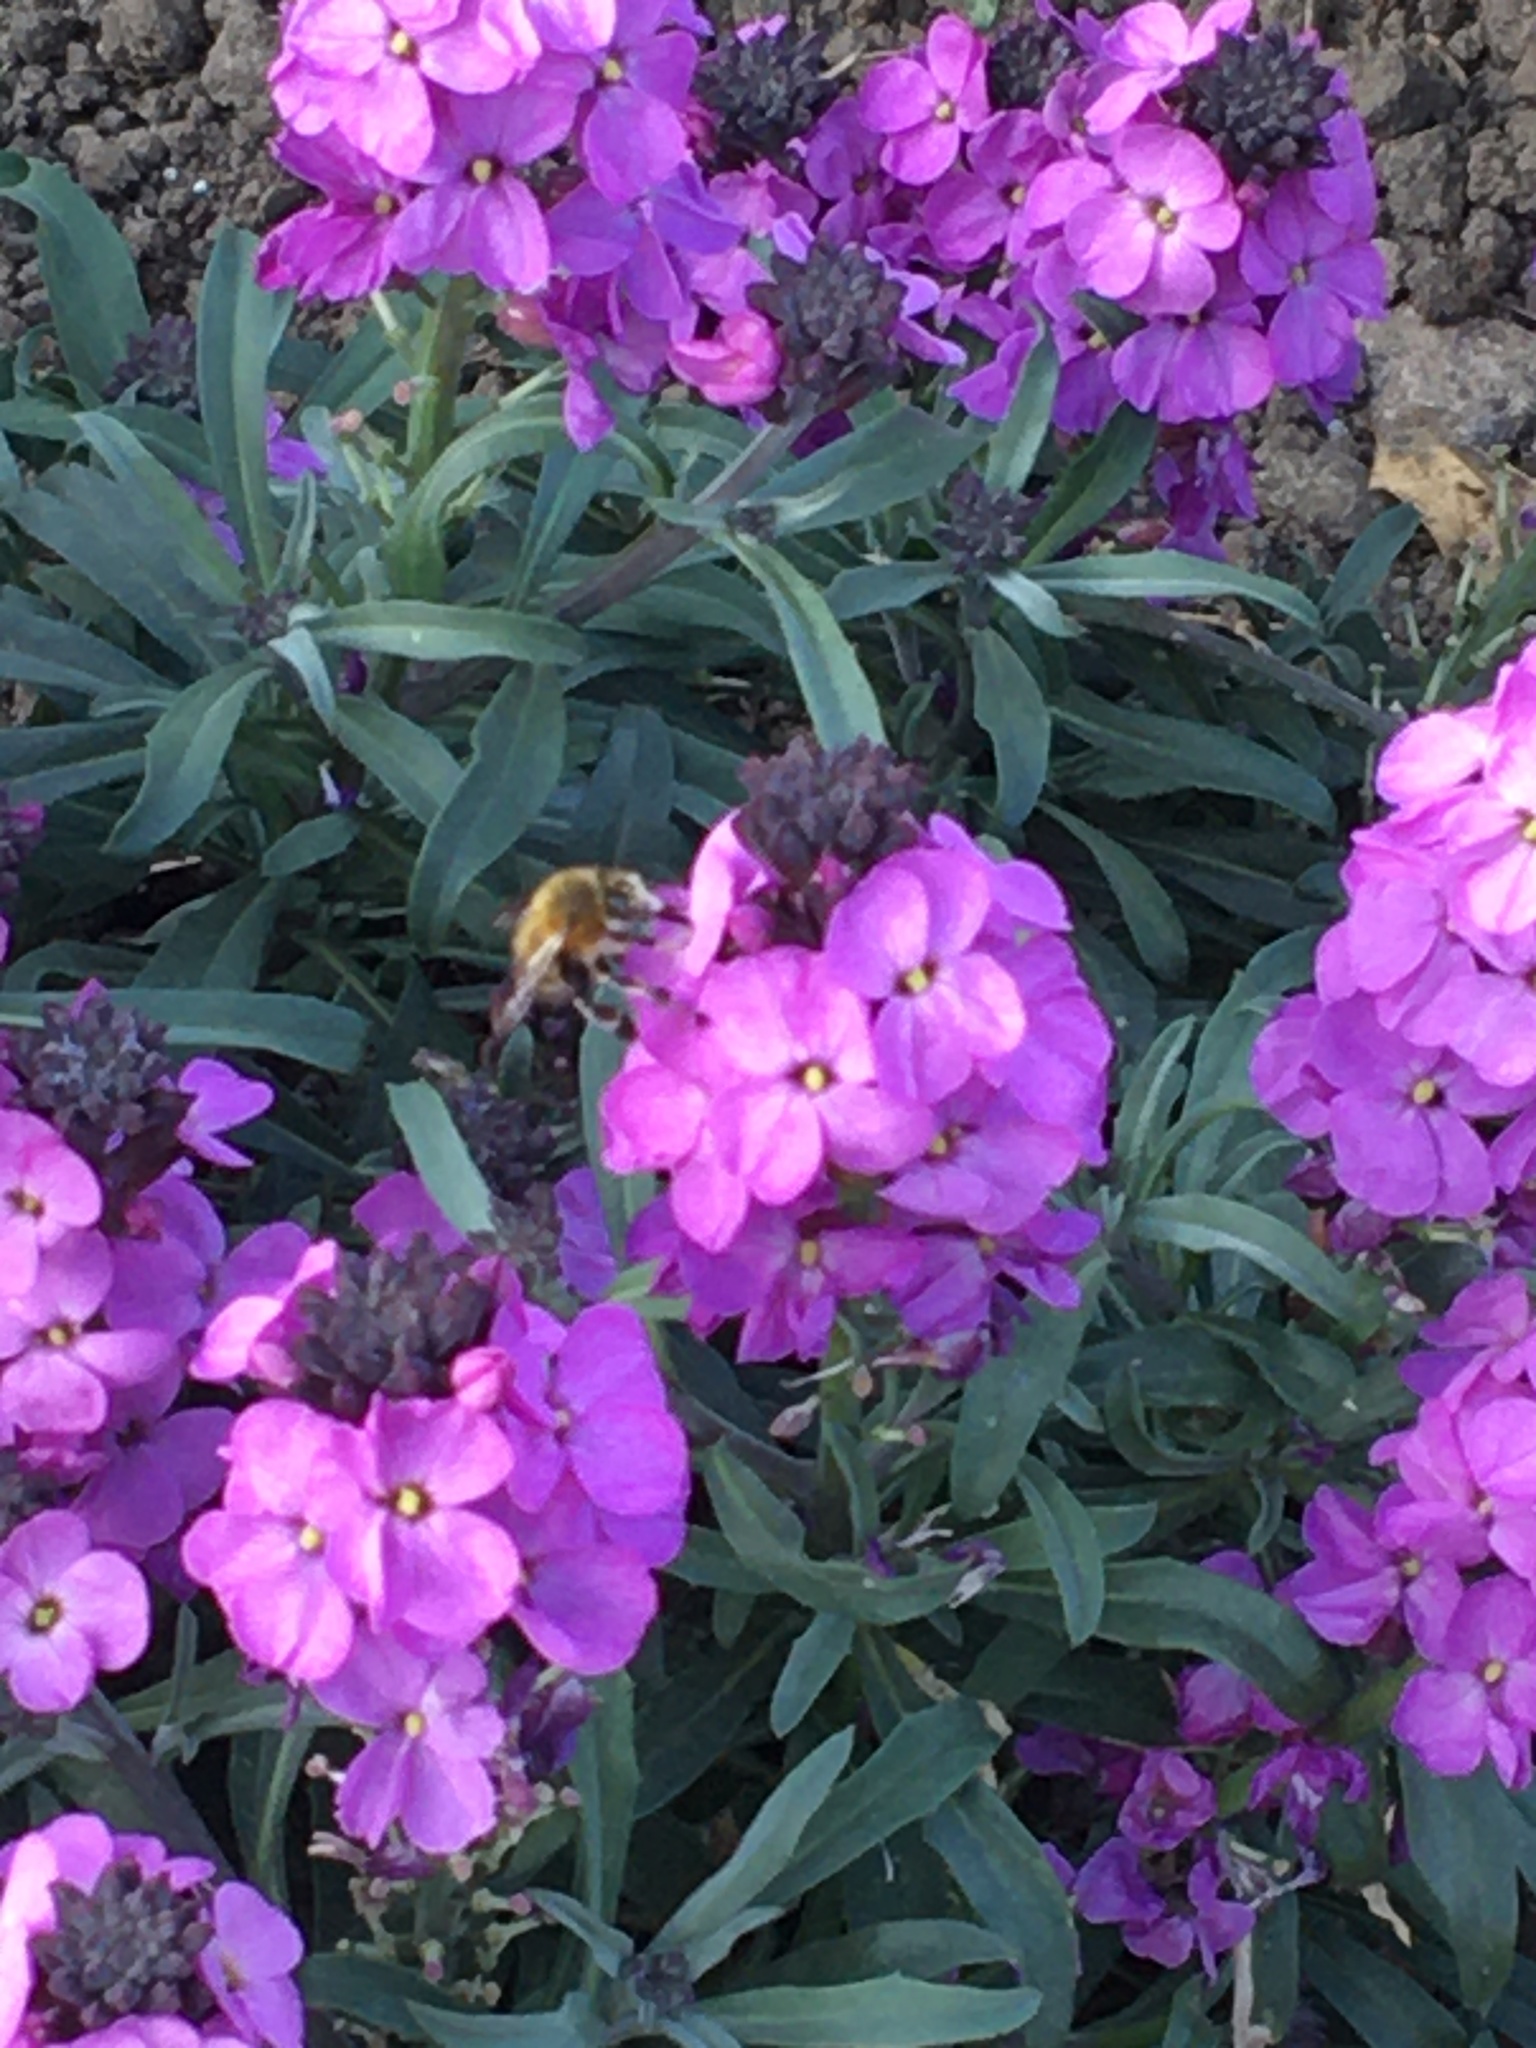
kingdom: Animalia
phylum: Arthropoda
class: Insecta
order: Hymenoptera
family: Apidae
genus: Anthophora
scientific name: Anthophora plumipes
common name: Hairy-footed flower bee
